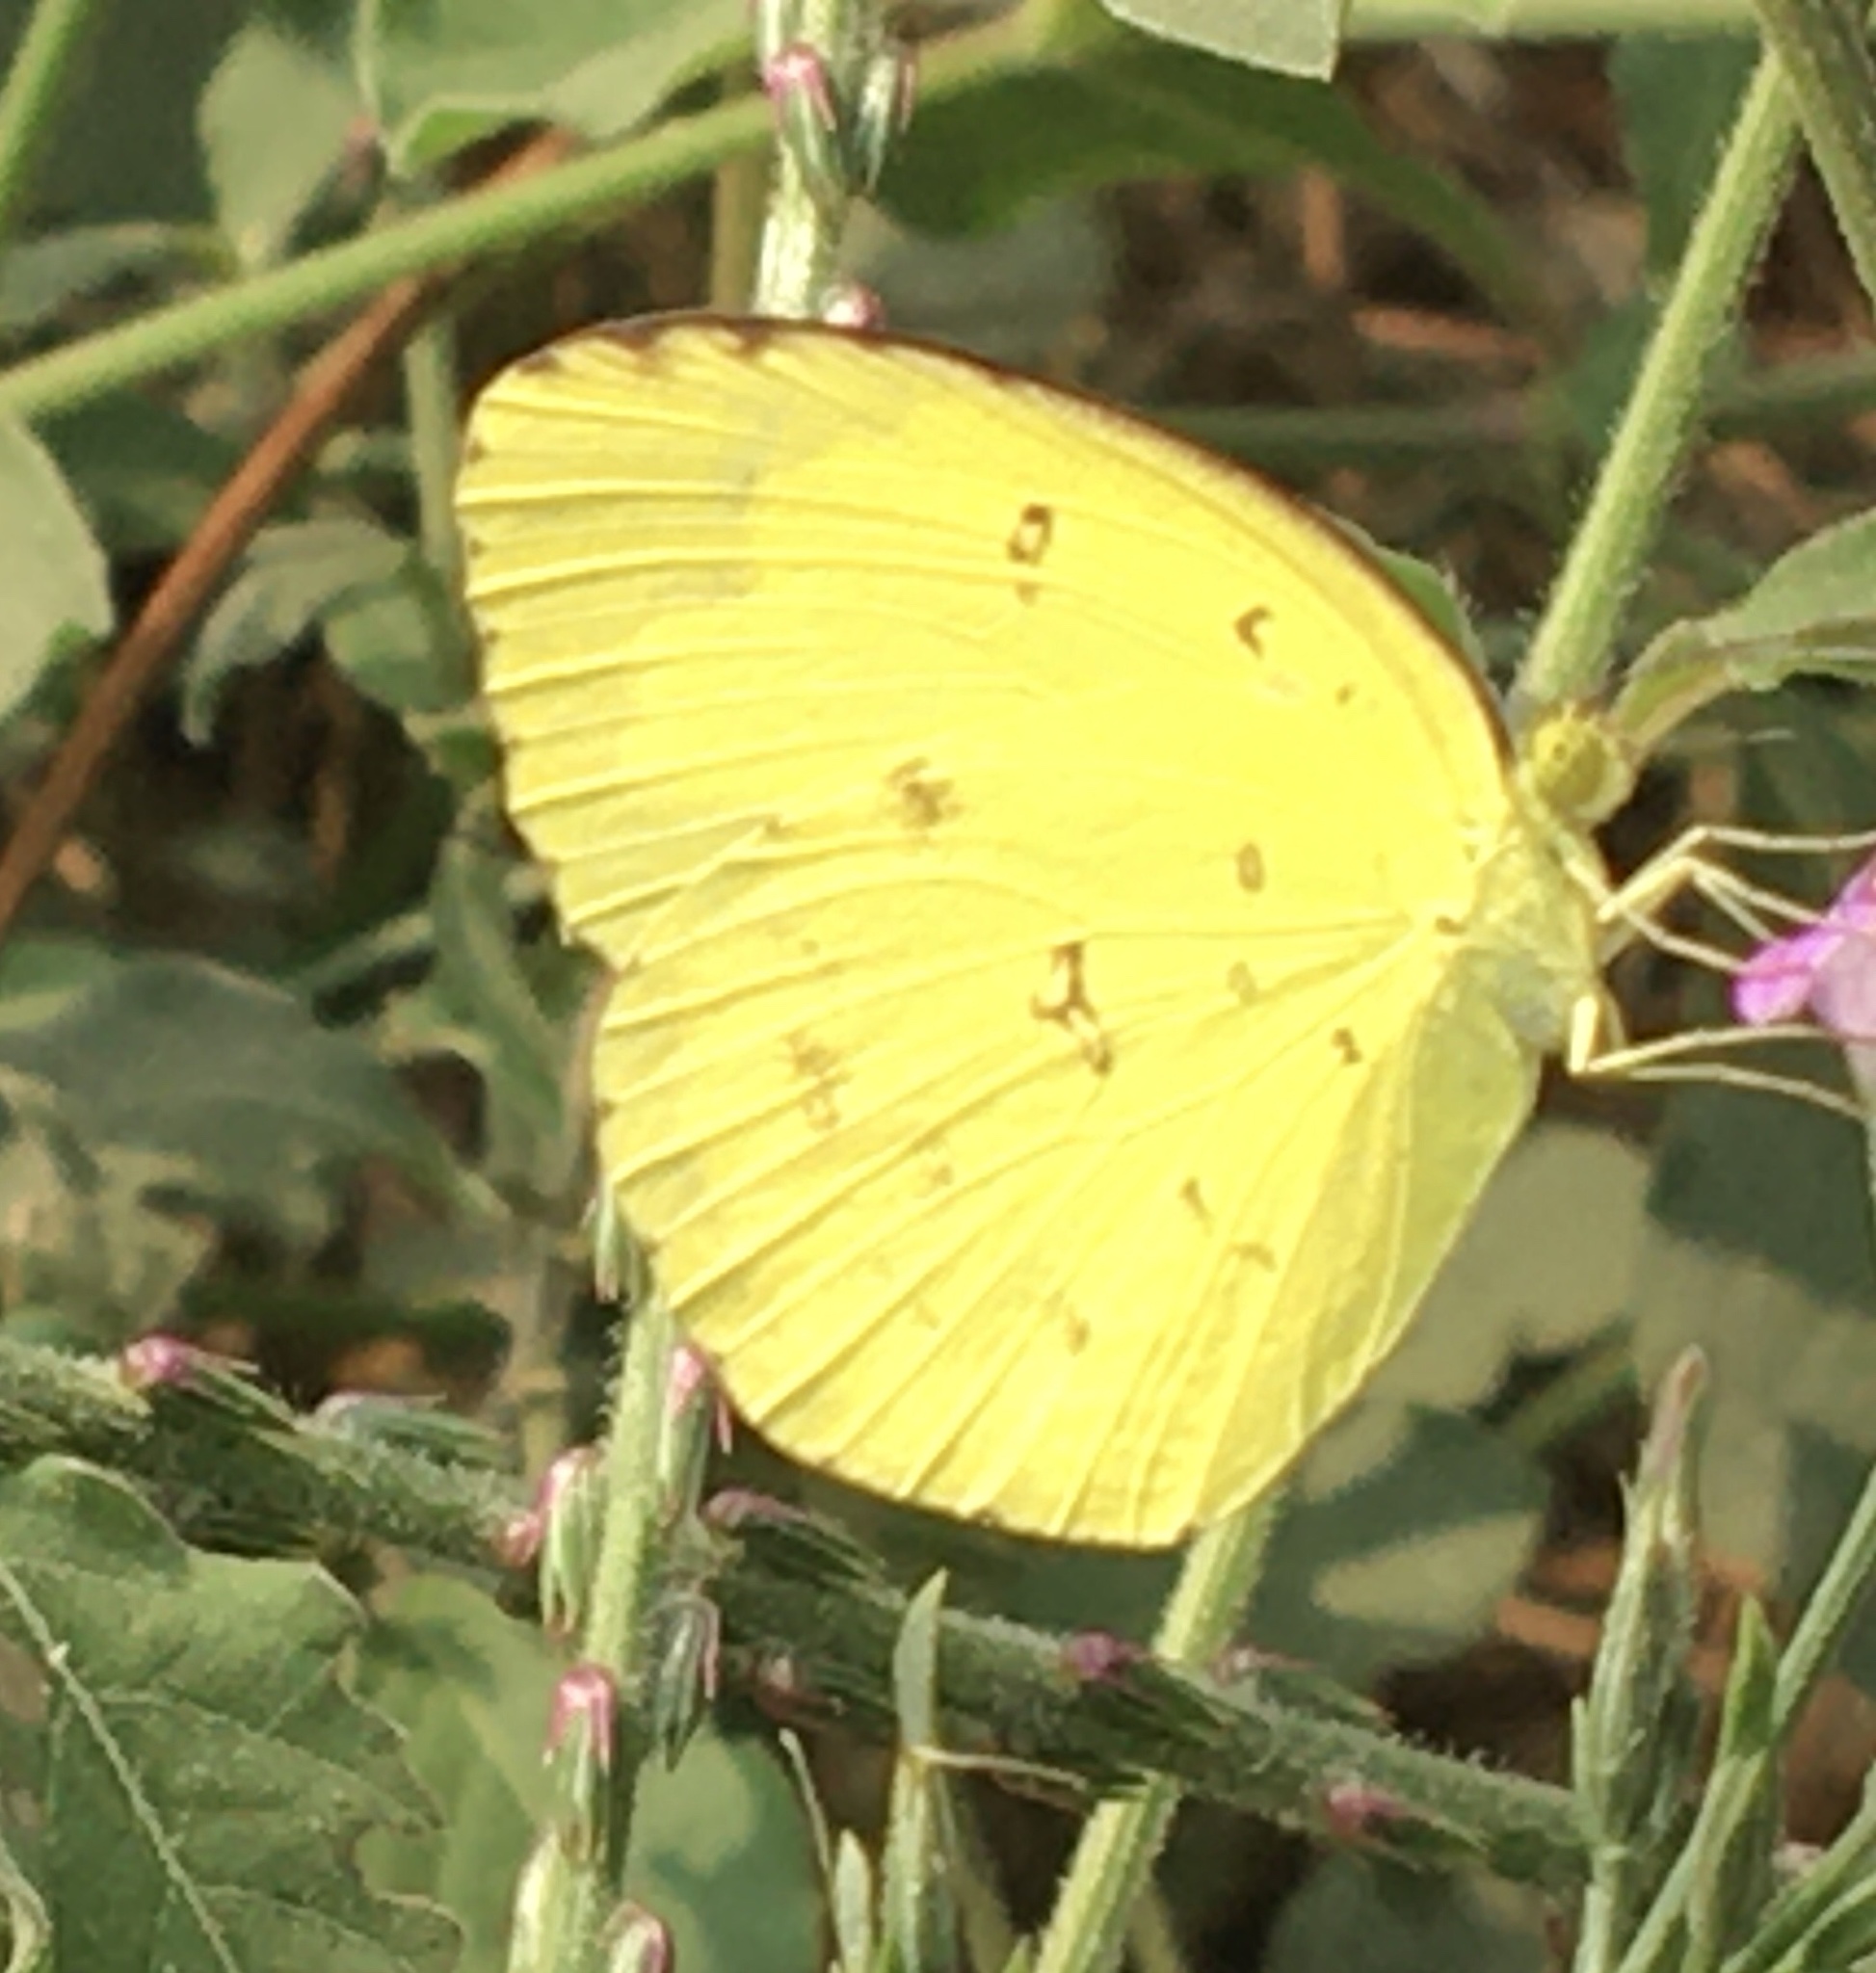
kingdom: Animalia
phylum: Arthropoda
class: Insecta
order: Lepidoptera
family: Pieridae
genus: Eurema
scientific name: Eurema hecabe
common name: Pale grass yellow
